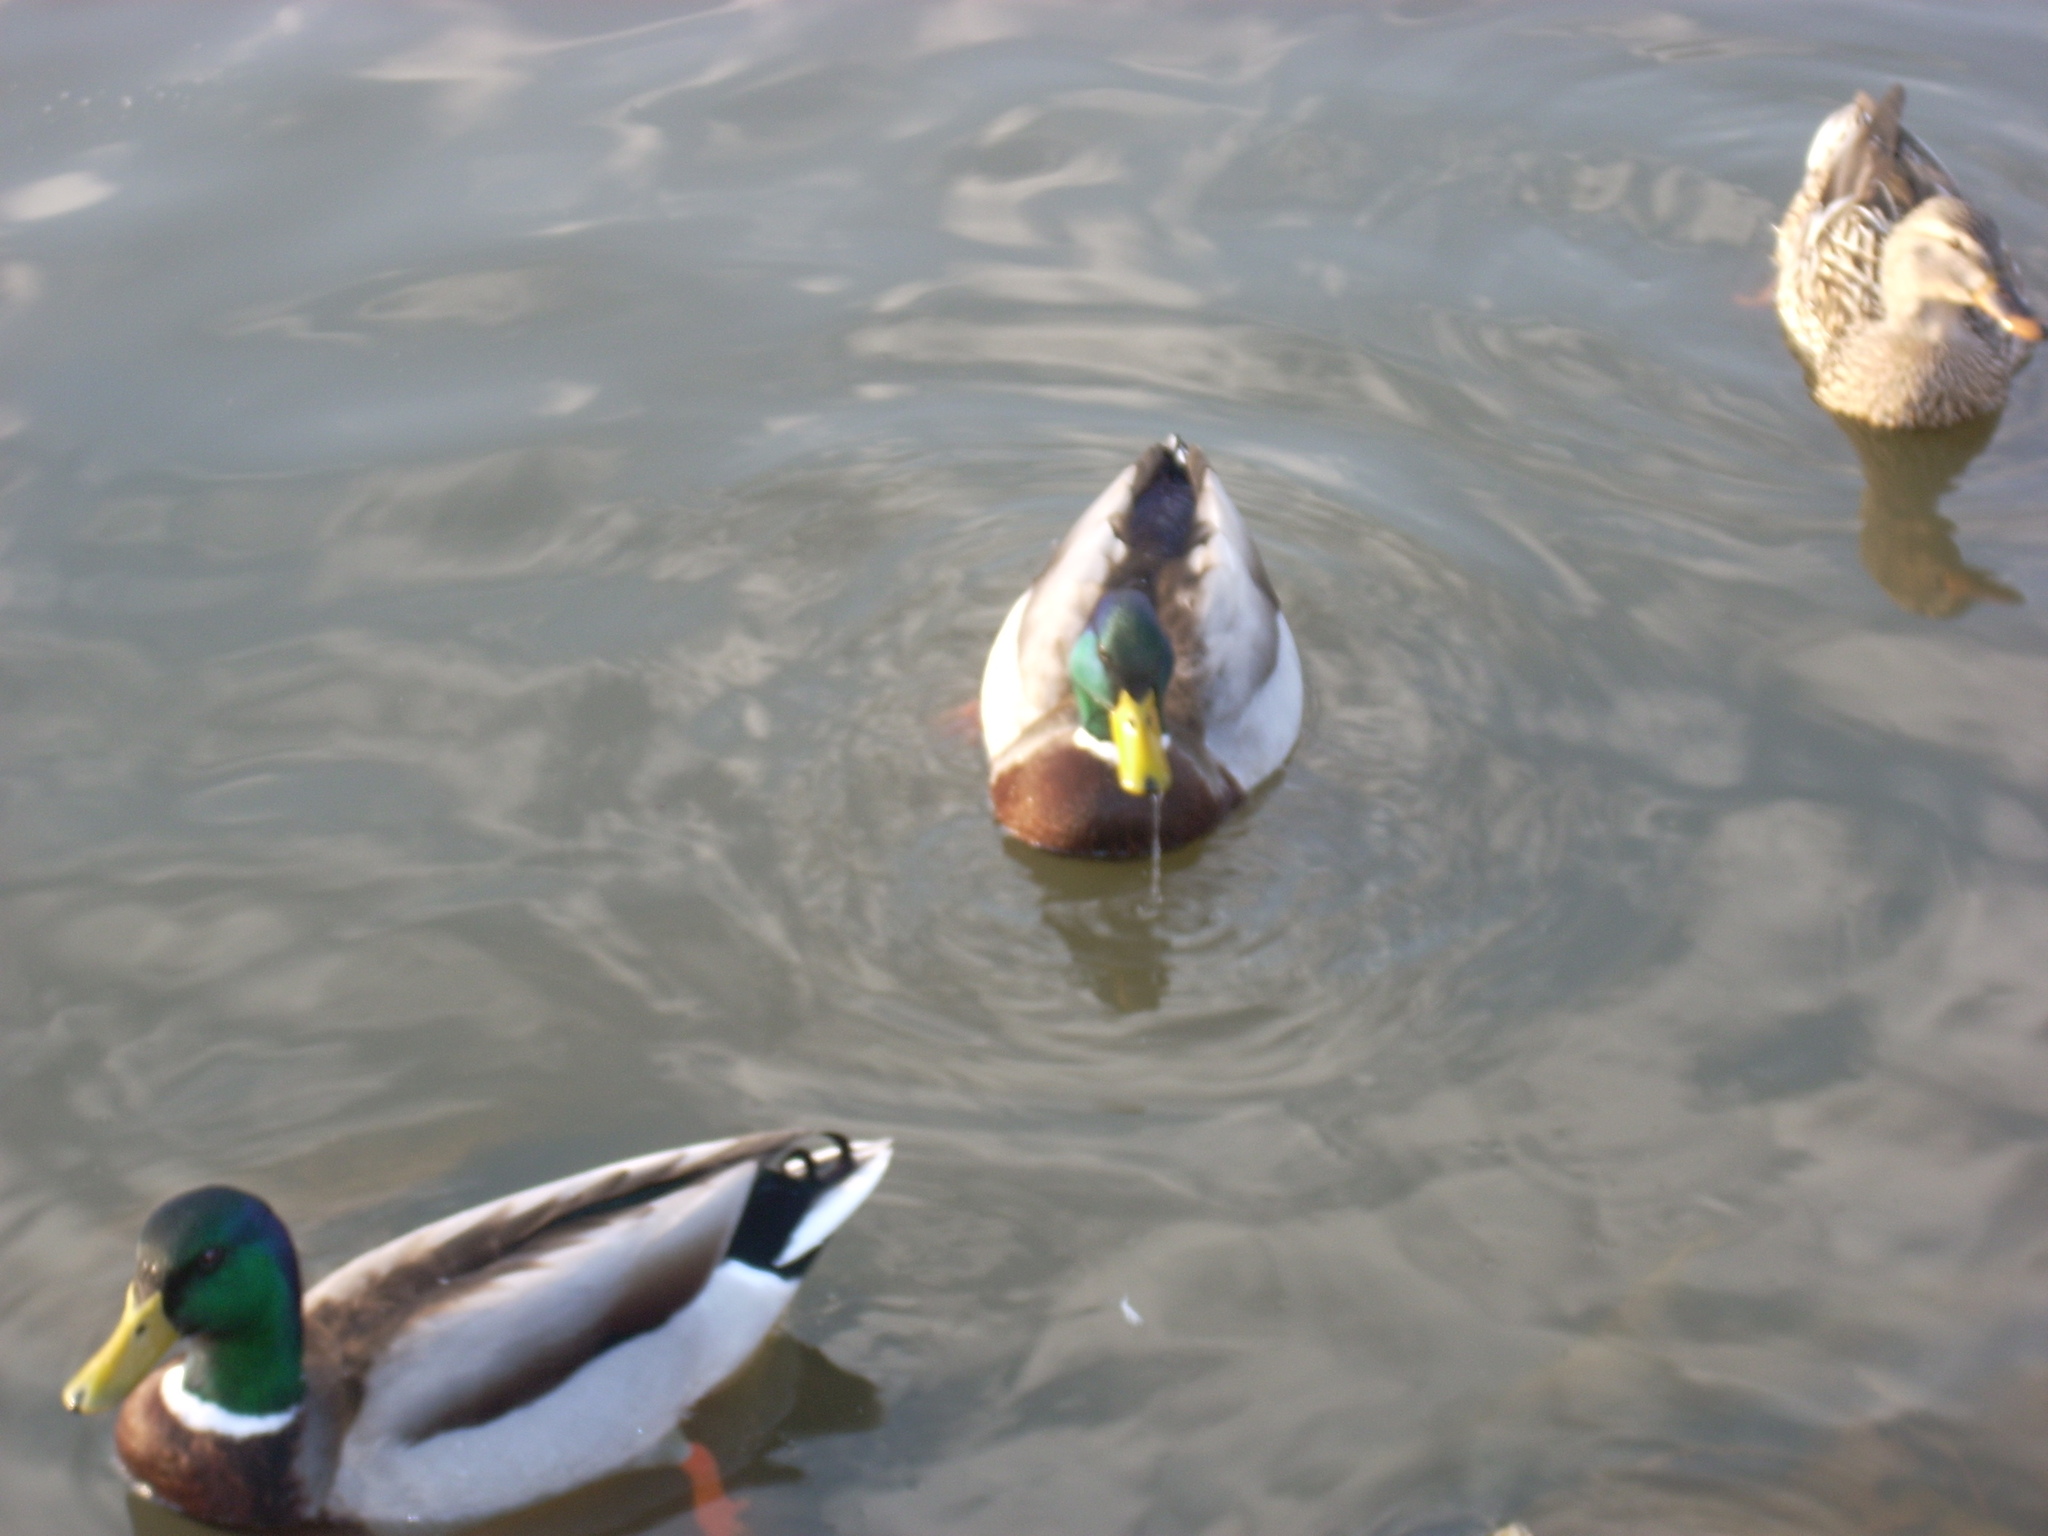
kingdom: Animalia
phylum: Chordata
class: Aves
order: Anseriformes
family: Anatidae
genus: Anas
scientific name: Anas platyrhynchos
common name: Mallard
